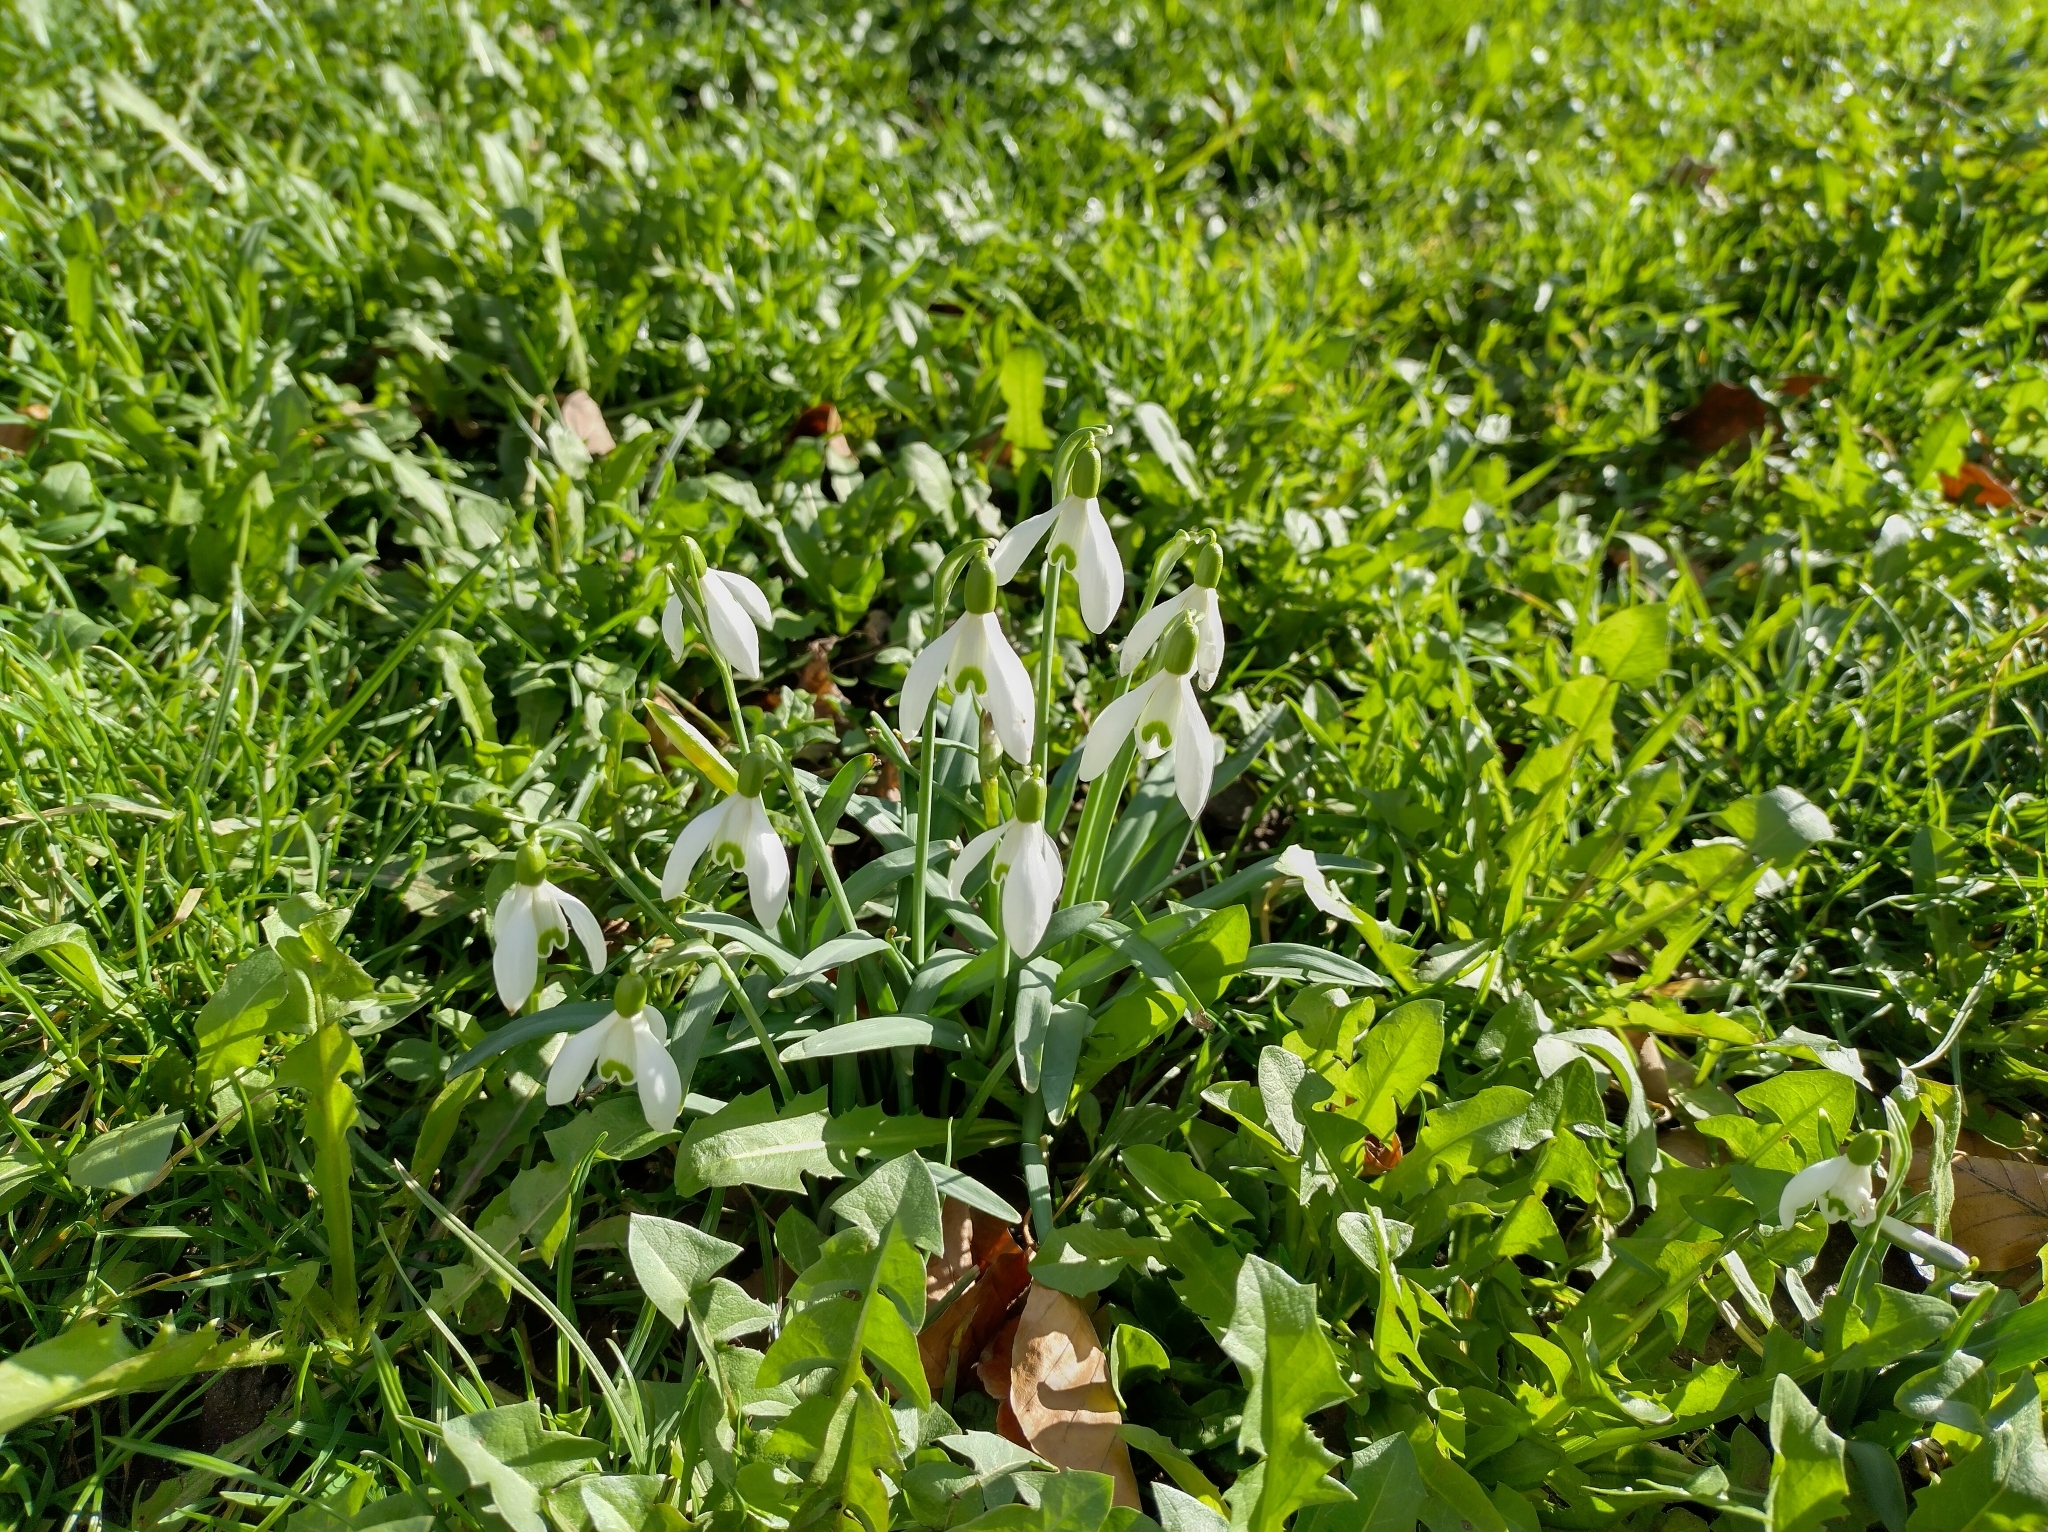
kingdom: Plantae
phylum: Tracheophyta
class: Liliopsida
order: Asparagales
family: Amaryllidaceae
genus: Galanthus
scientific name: Galanthus nivalis
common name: Snowdrop
